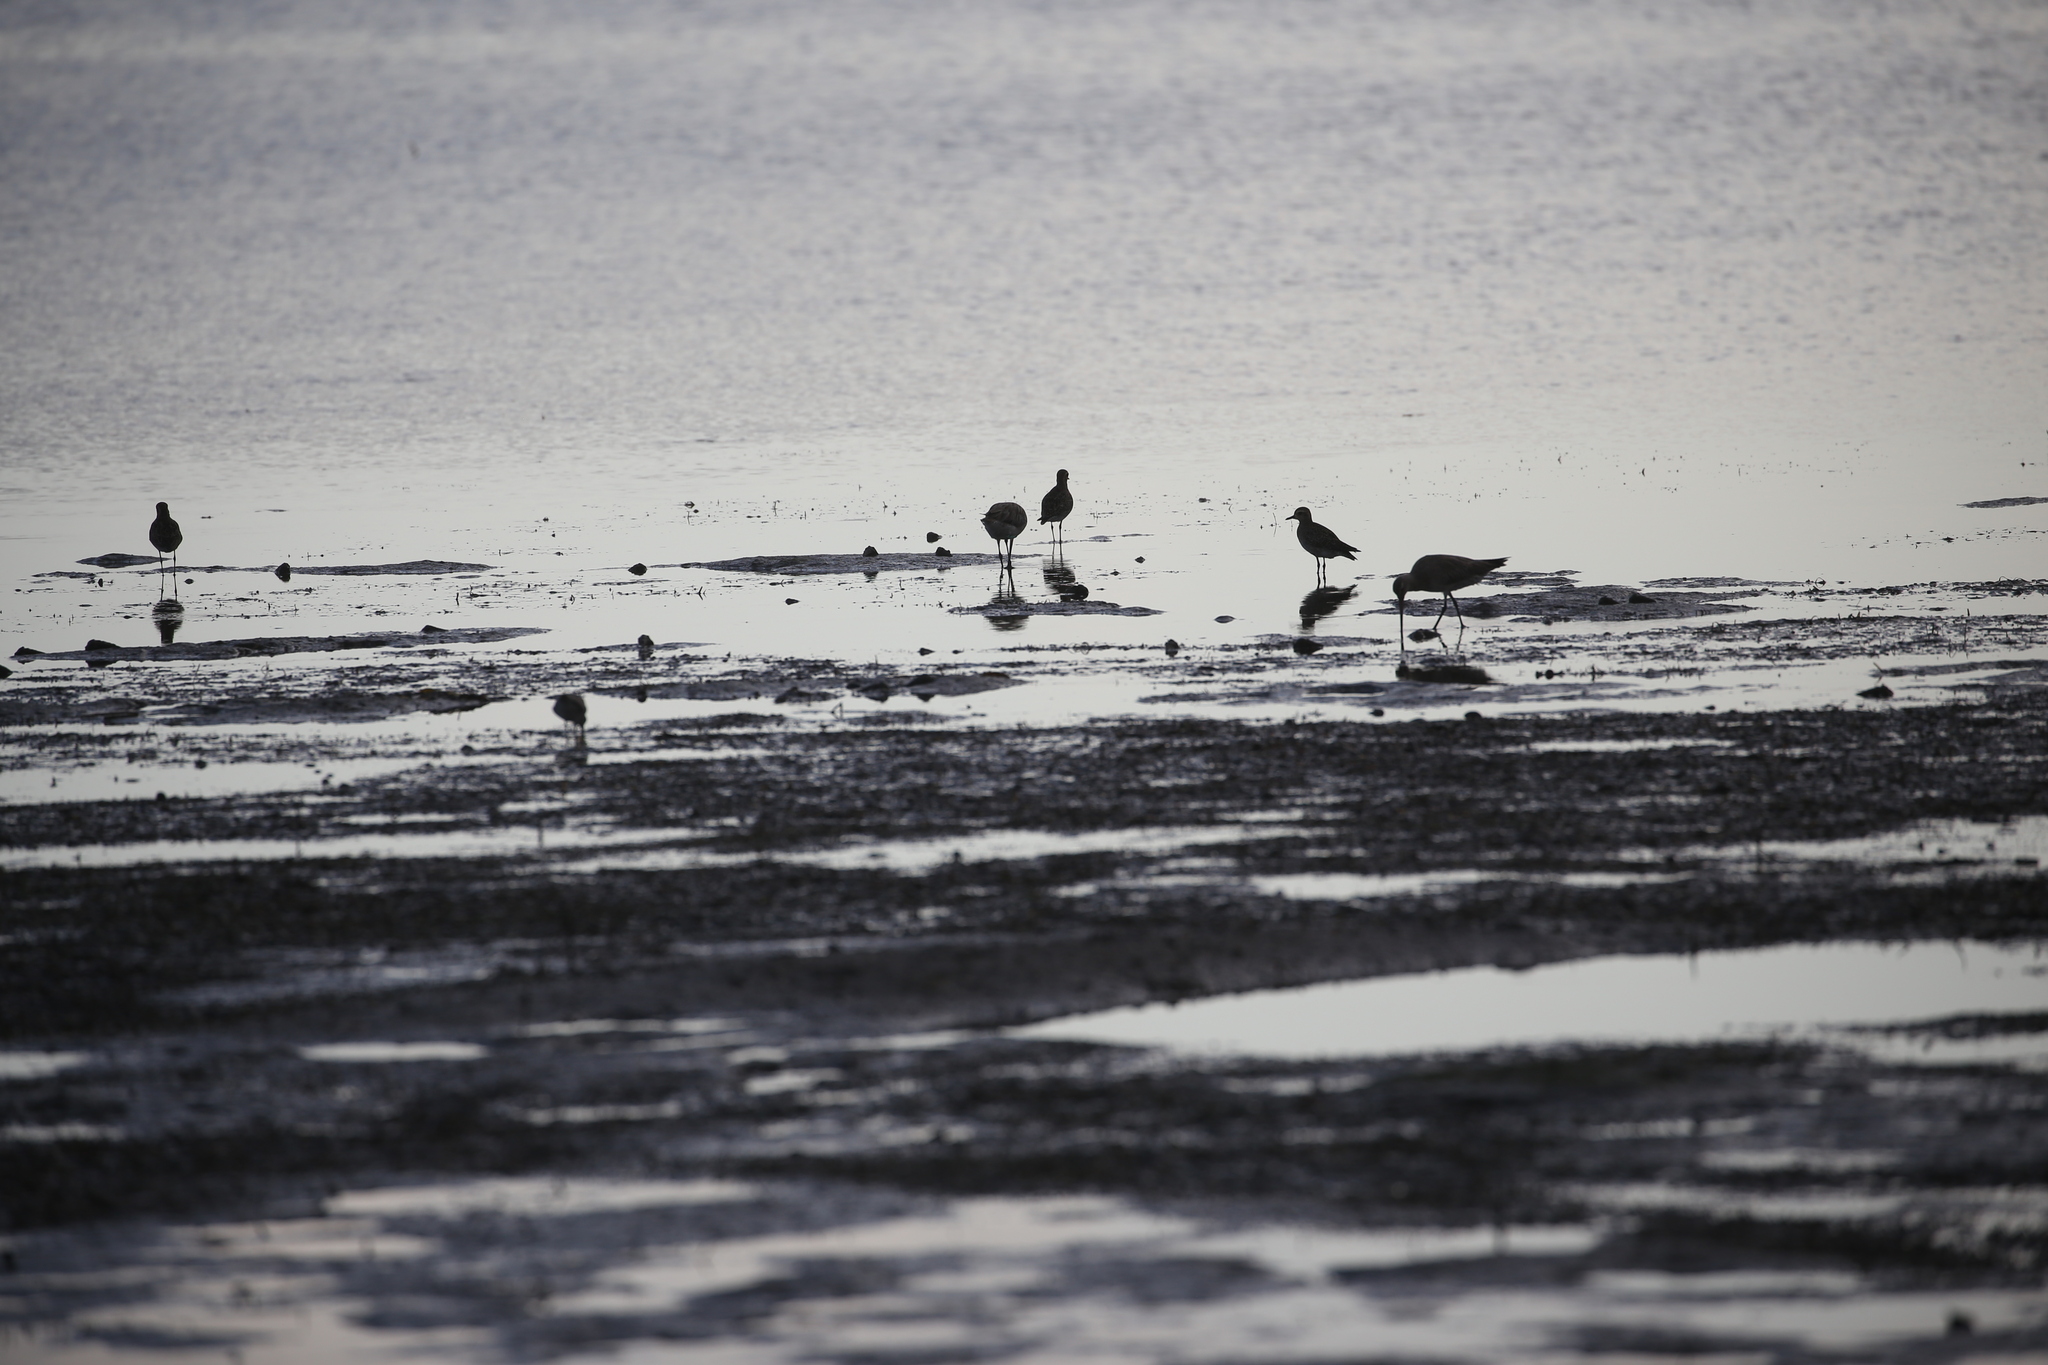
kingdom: Animalia
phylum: Chordata
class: Aves
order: Charadriiformes
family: Charadriidae
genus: Pluvialis
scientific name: Pluvialis fulva
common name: Pacific golden plover
